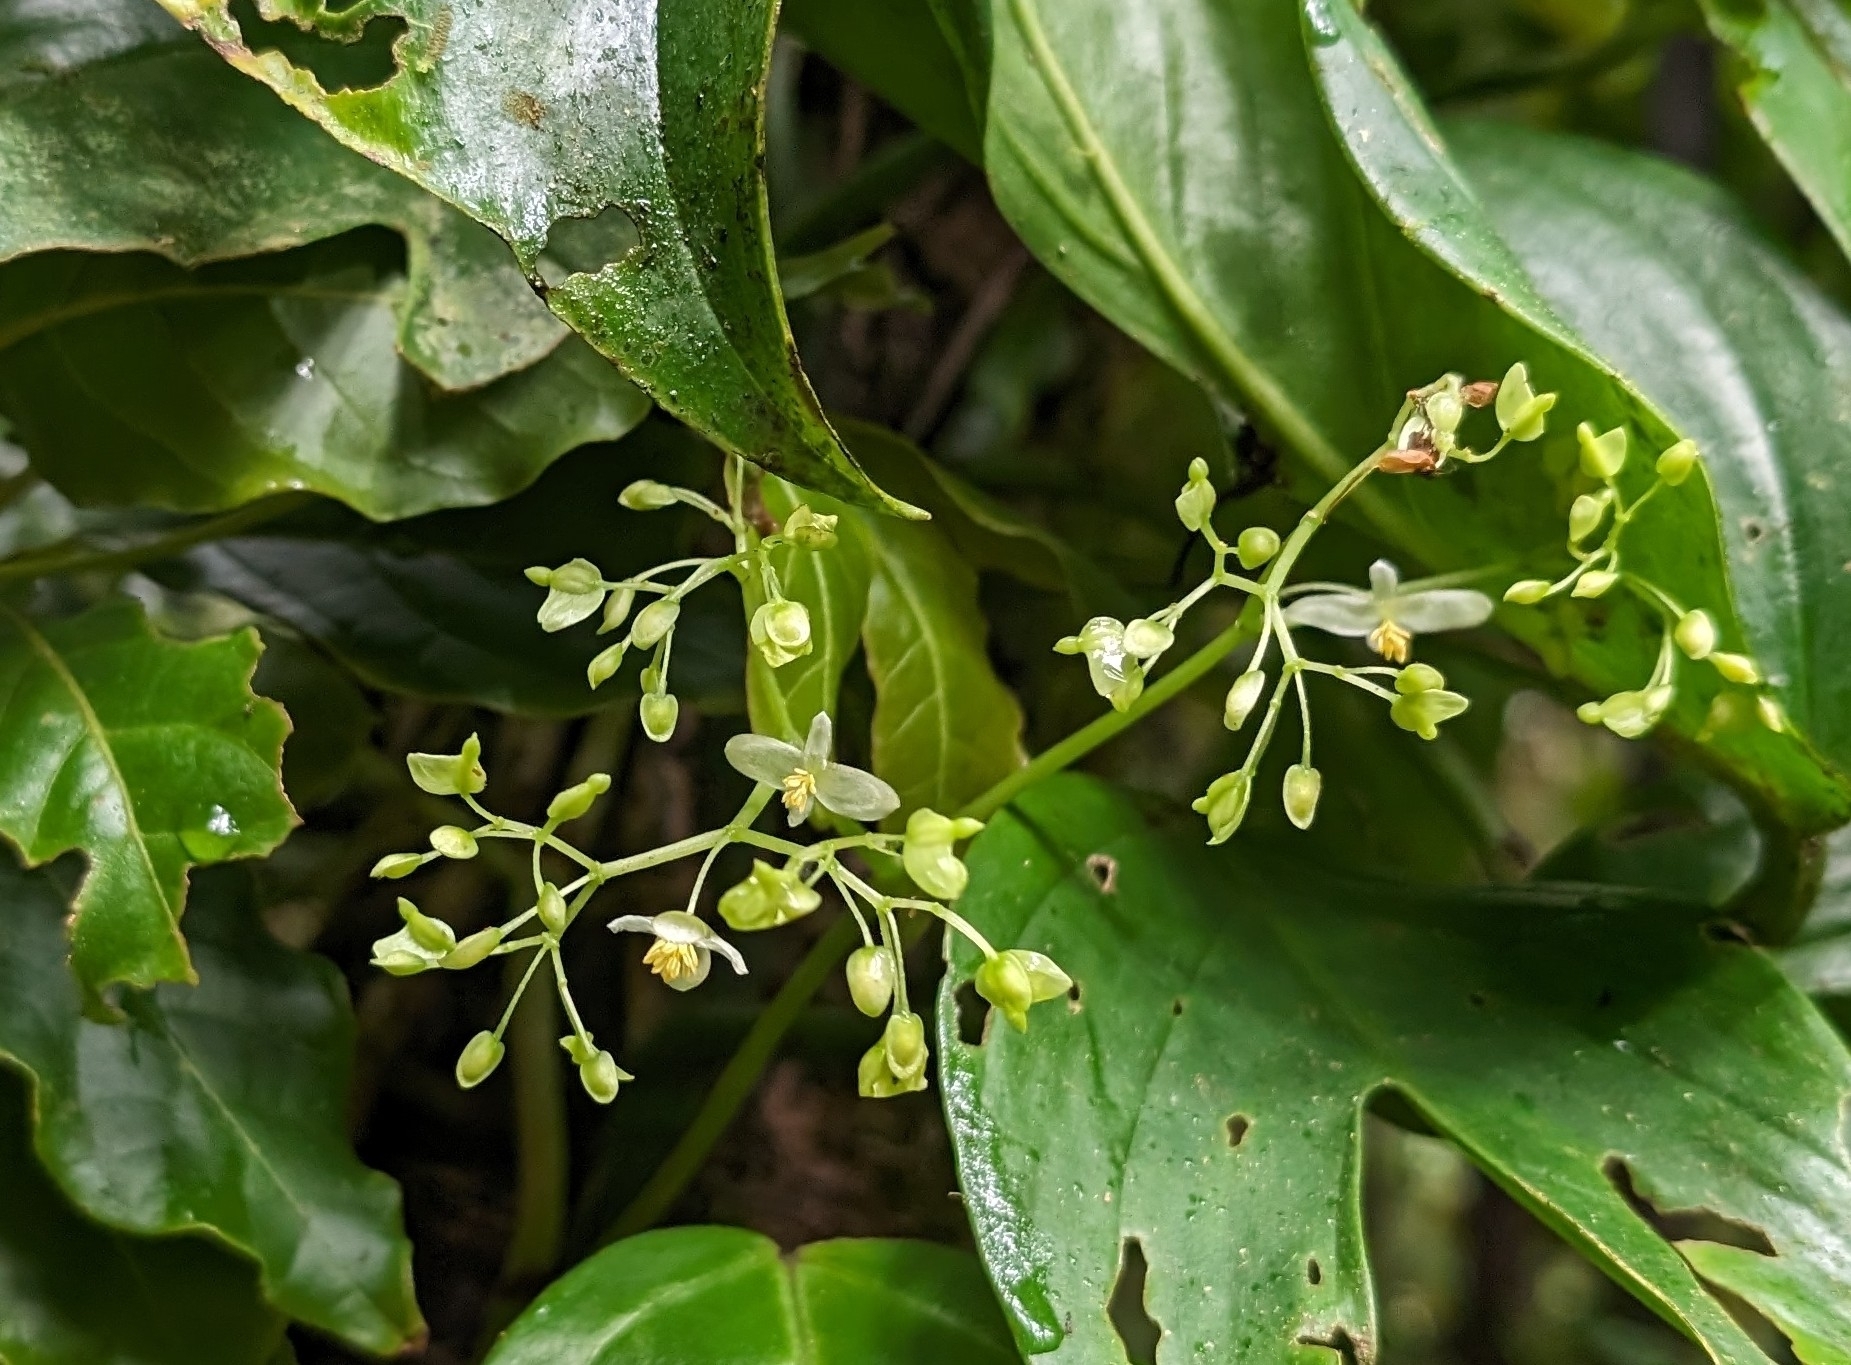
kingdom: Plantae
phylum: Tracheophyta
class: Magnoliopsida
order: Cucurbitales
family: Begoniaceae
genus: Begonia
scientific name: Begonia glabra
